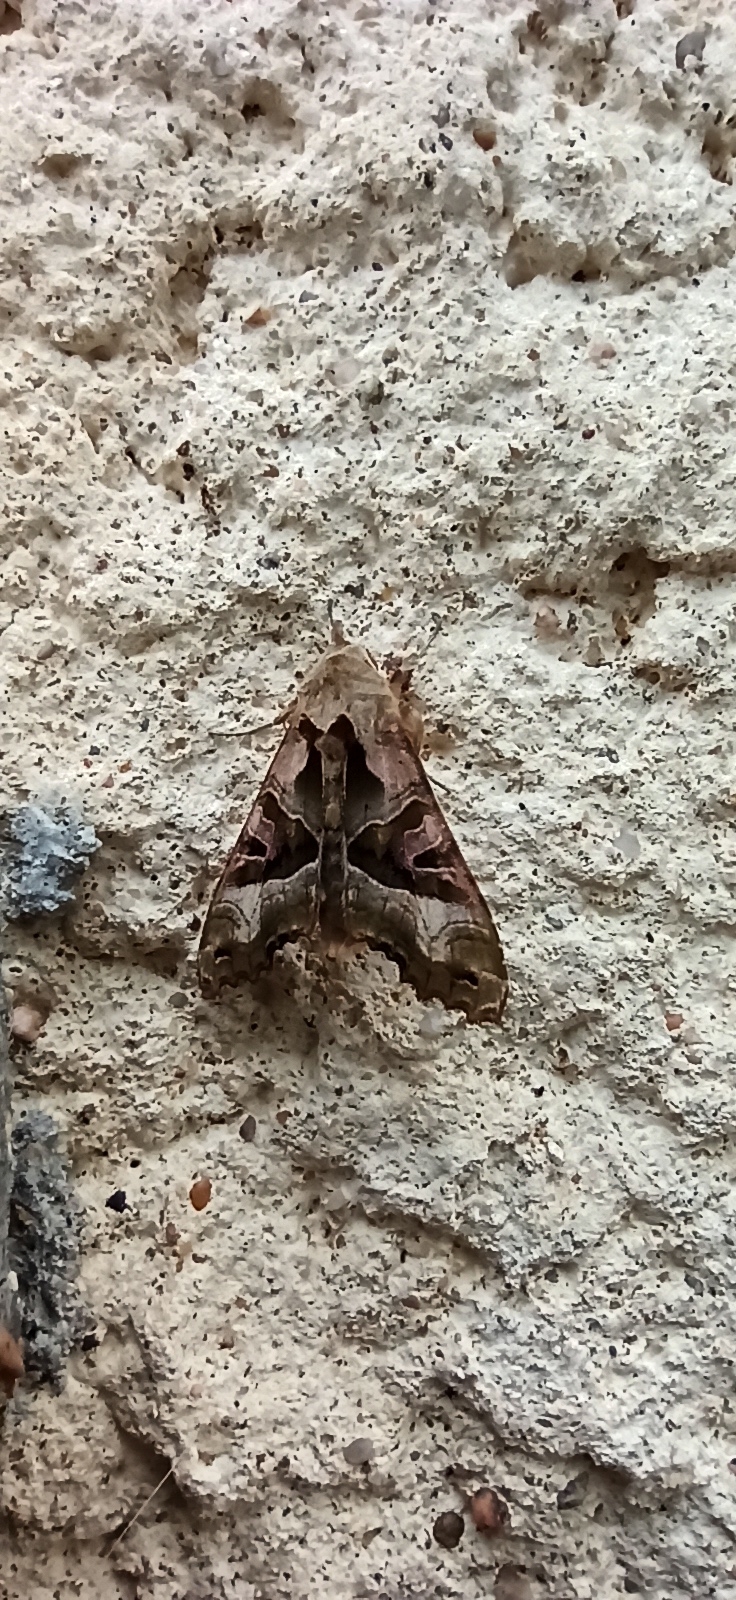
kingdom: Animalia
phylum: Arthropoda
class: Insecta
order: Lepidoptera
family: Noctuidae
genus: Phlogophora
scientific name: Phlogophora meticulosa
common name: Angle shades
